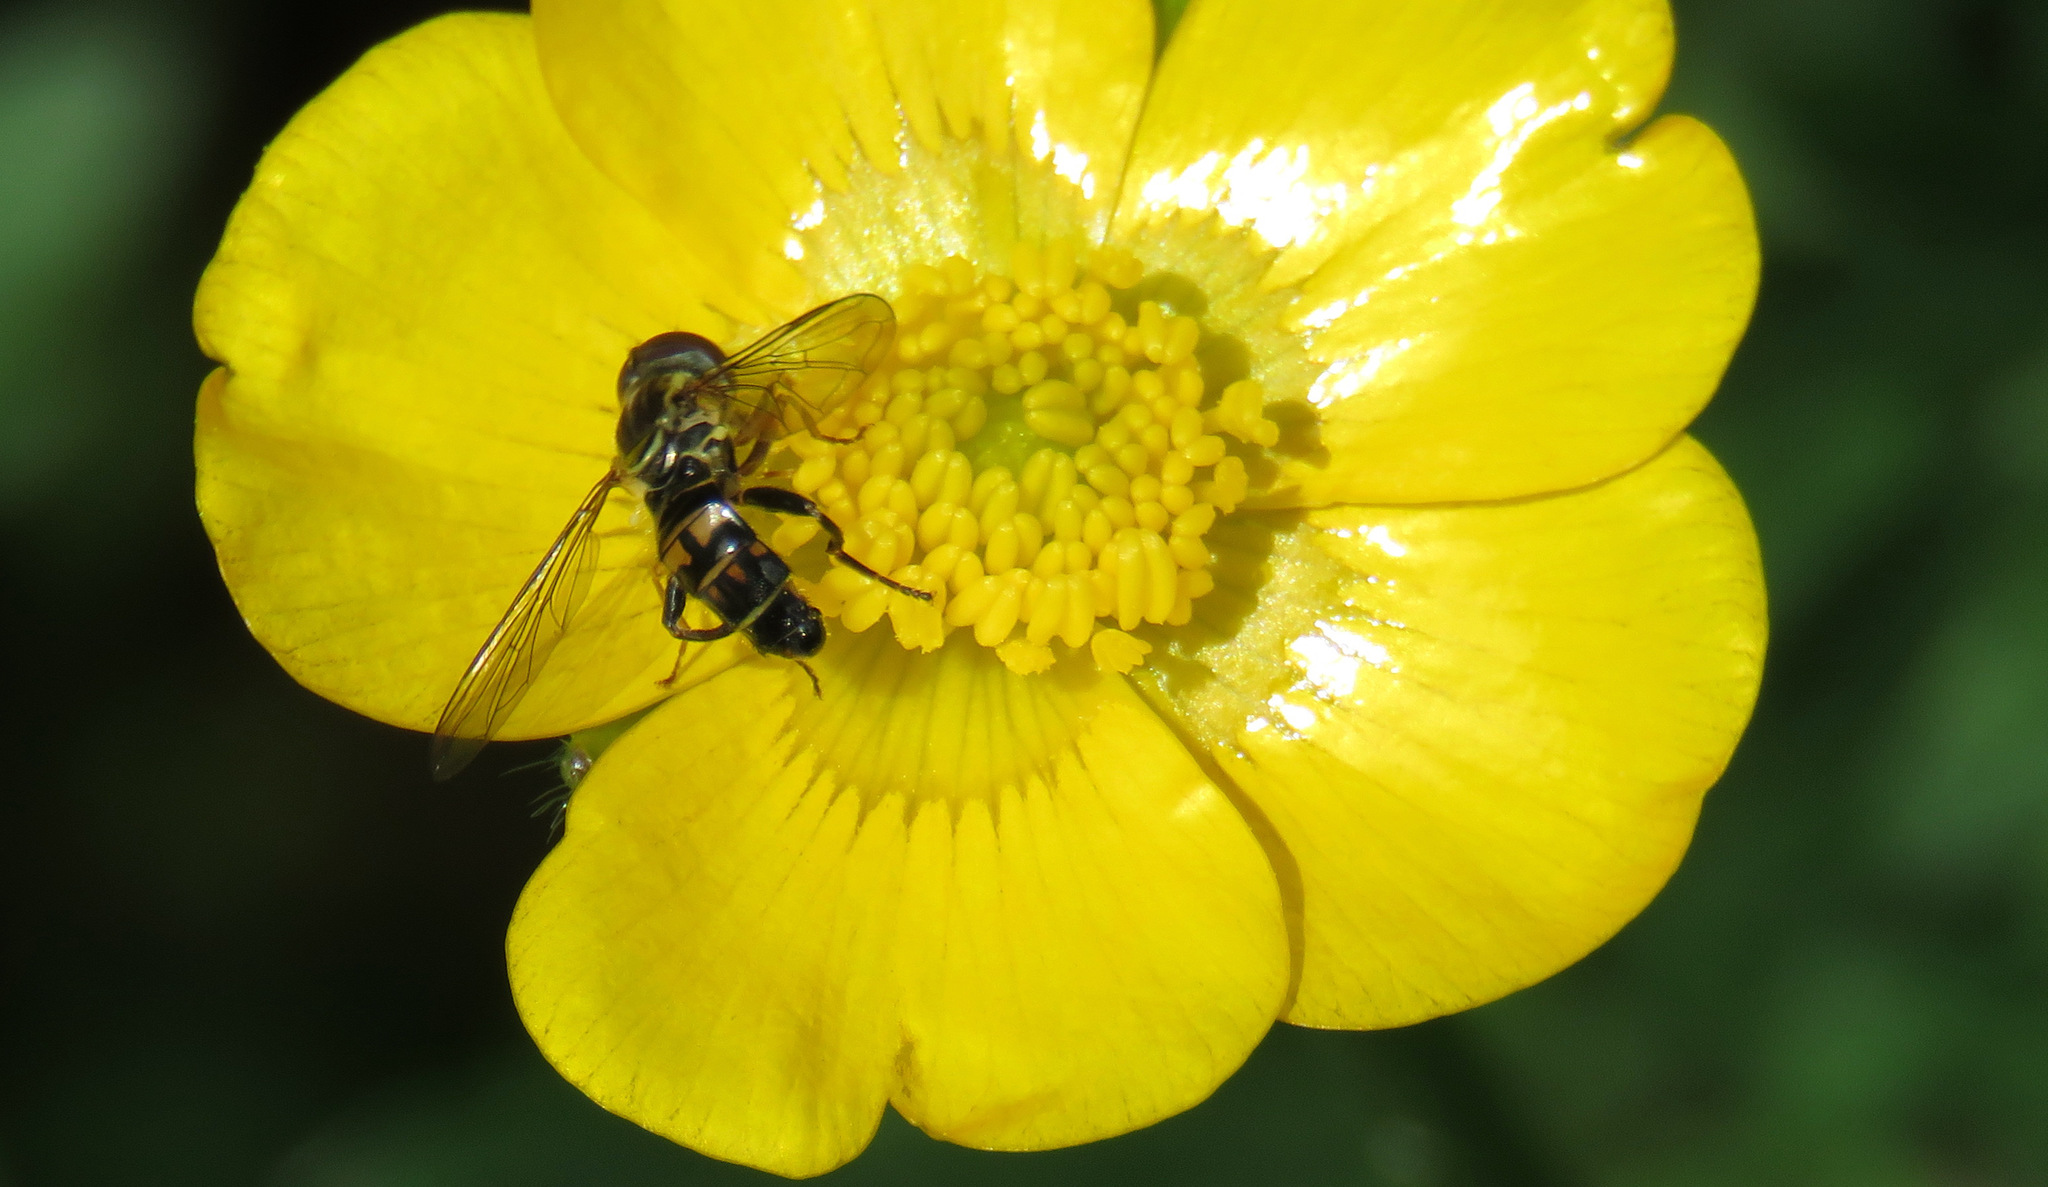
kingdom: Animalia
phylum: Arthropoda
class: Insecta
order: Diptera
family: Syrphidae
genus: Toxomerus
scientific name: Toxomerus occidentalis
